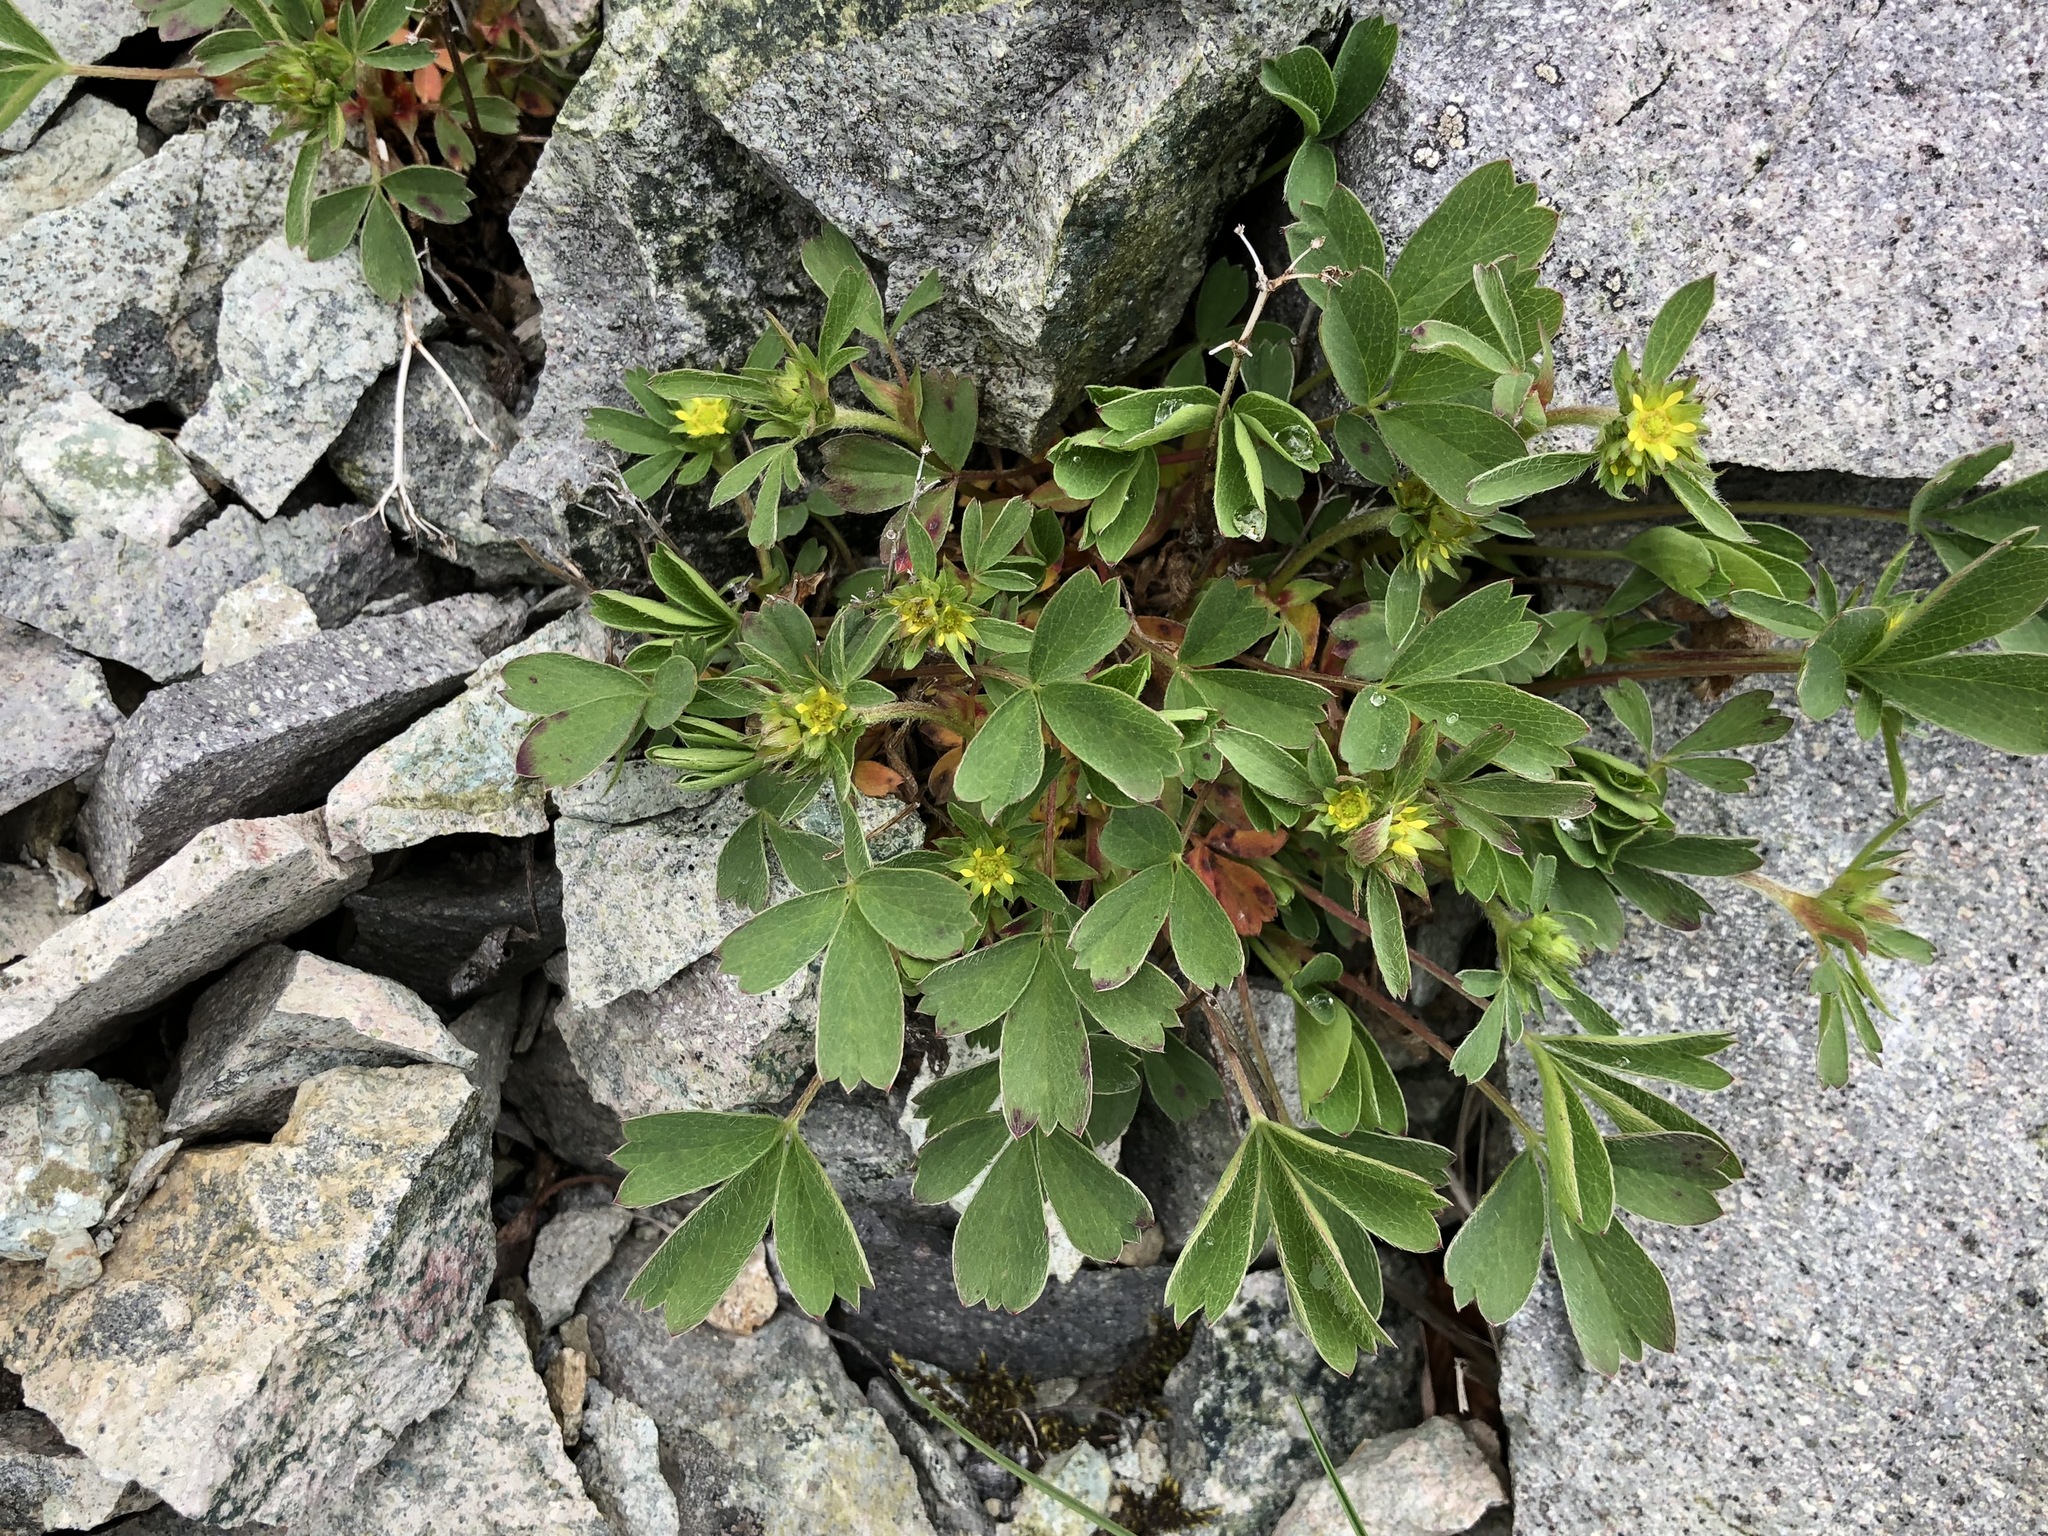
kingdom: Plantae
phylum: Tracheophyta
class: Magnoliopsida
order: Rosales
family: Rosaceae
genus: Sibbaldia
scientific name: Sibbaldia procumbens
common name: Creeping sibbaldia
